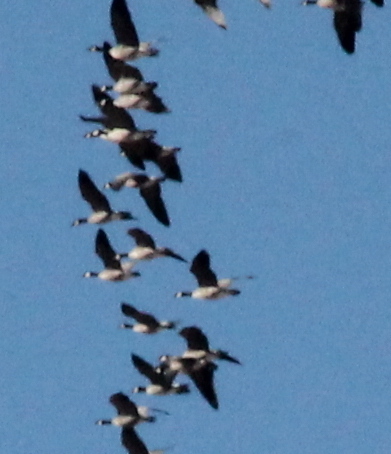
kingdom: Animalia
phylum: Chordata
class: Aves
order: Anseriformes
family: Anatidae
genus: Branta
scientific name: Branta canadensis
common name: Canada goose
